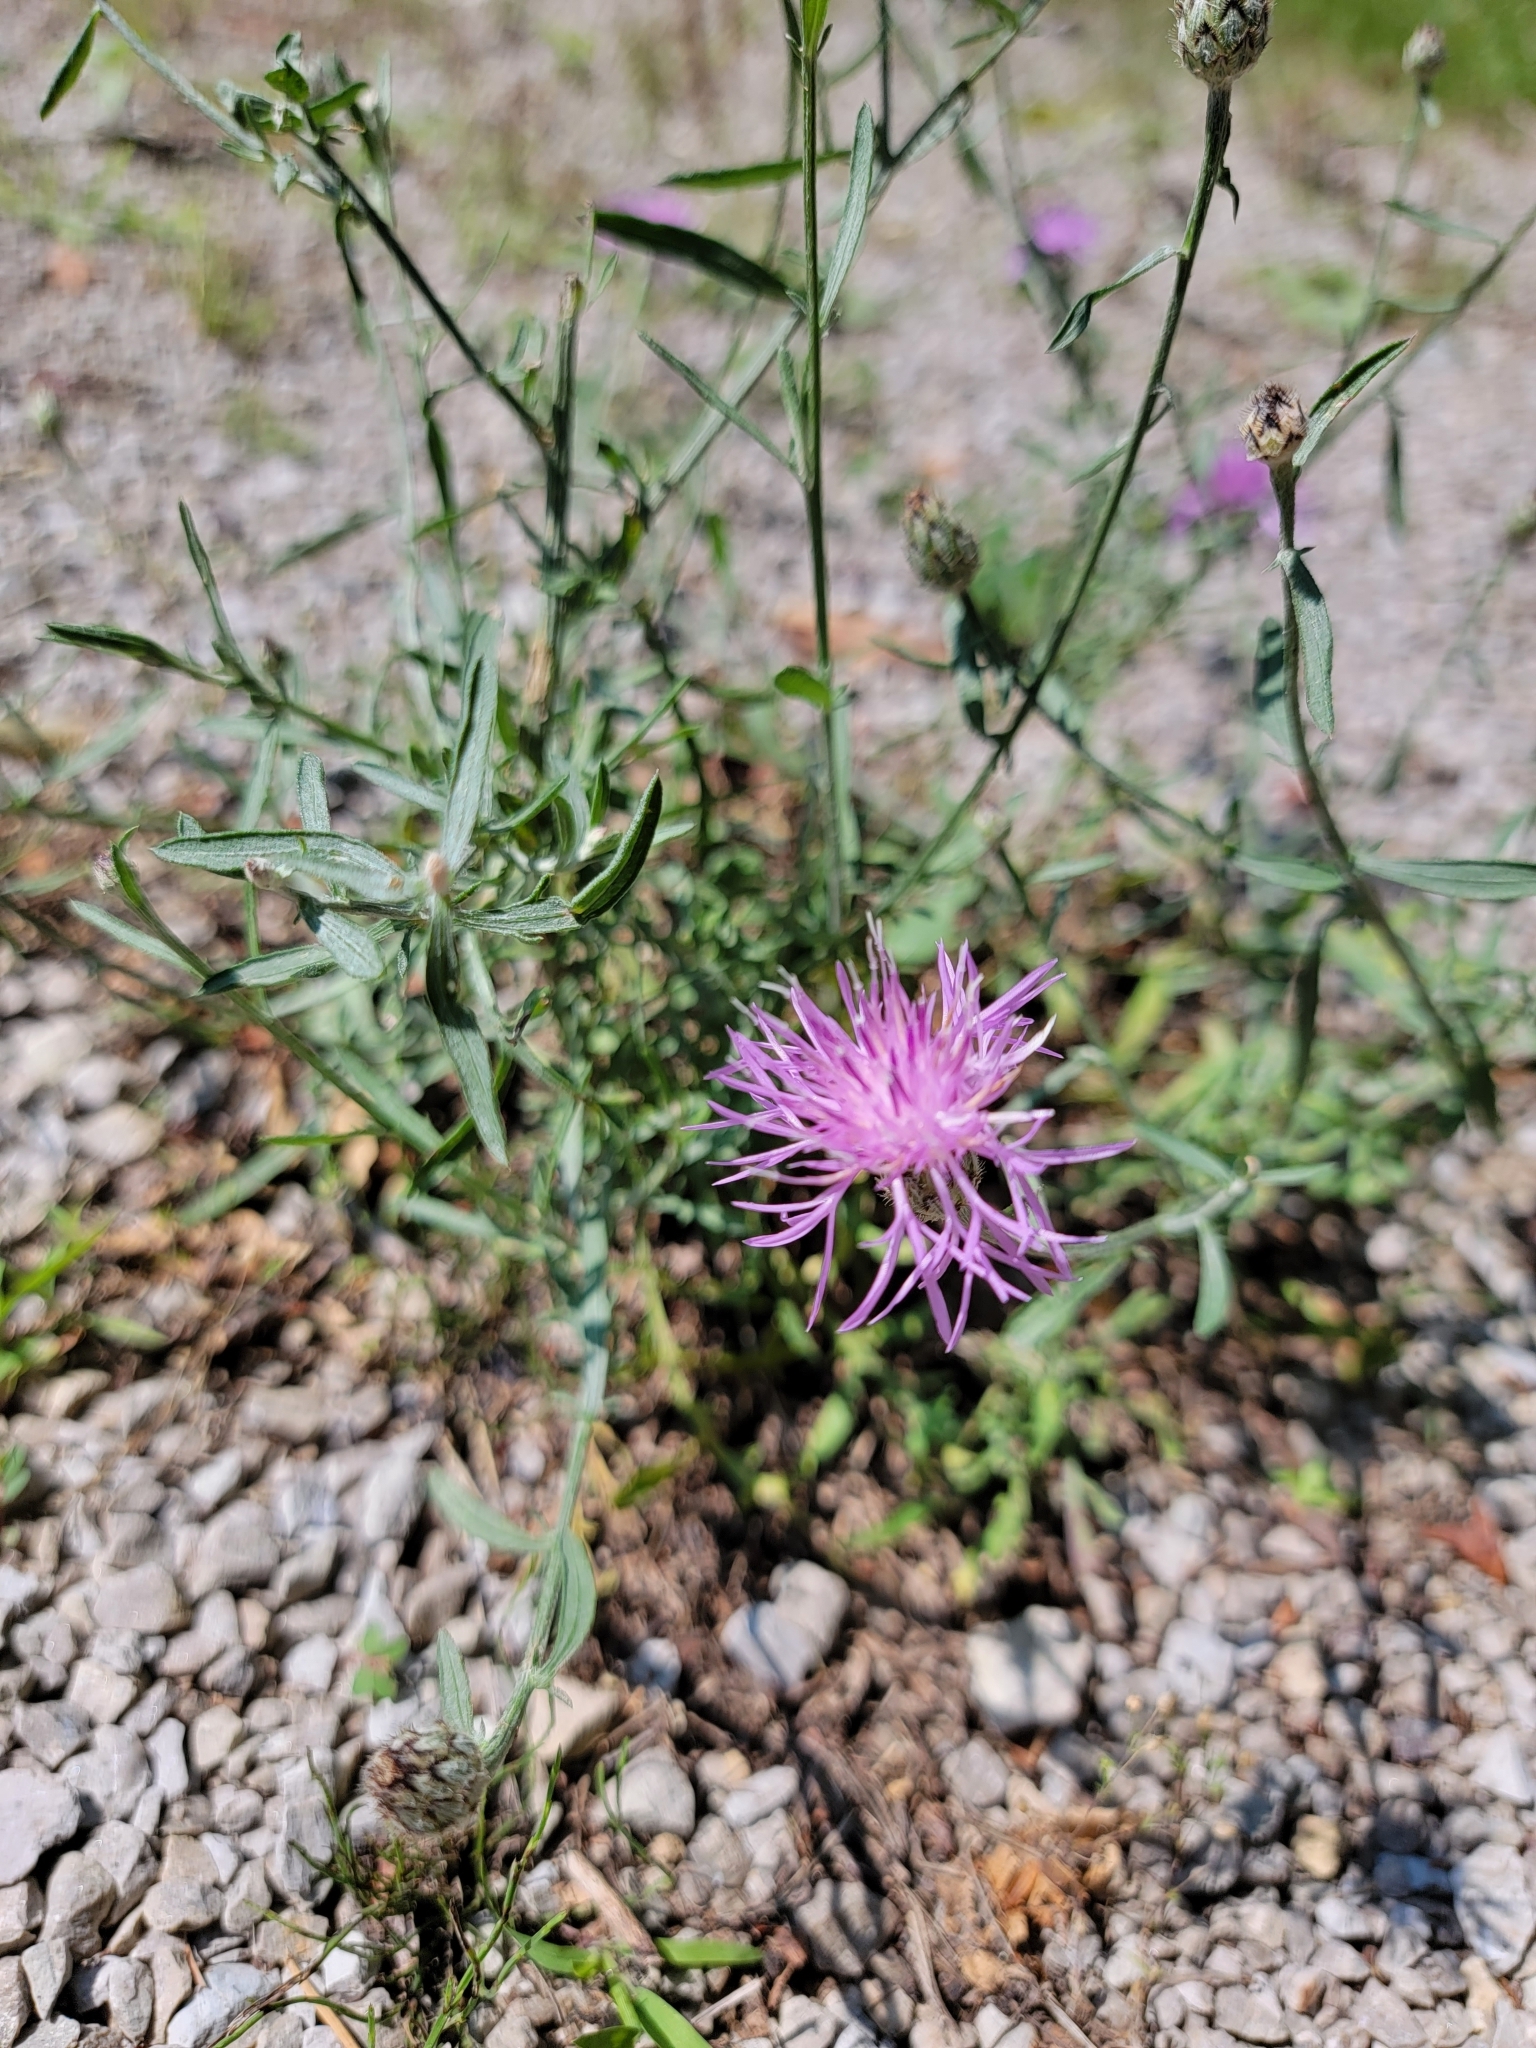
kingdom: Plantae
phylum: Tracheophyta
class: Magnoliopsida
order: Asterales
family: Asteraceae
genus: Centaurea
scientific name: Centaurea stoebe
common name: Spotted knapweed
